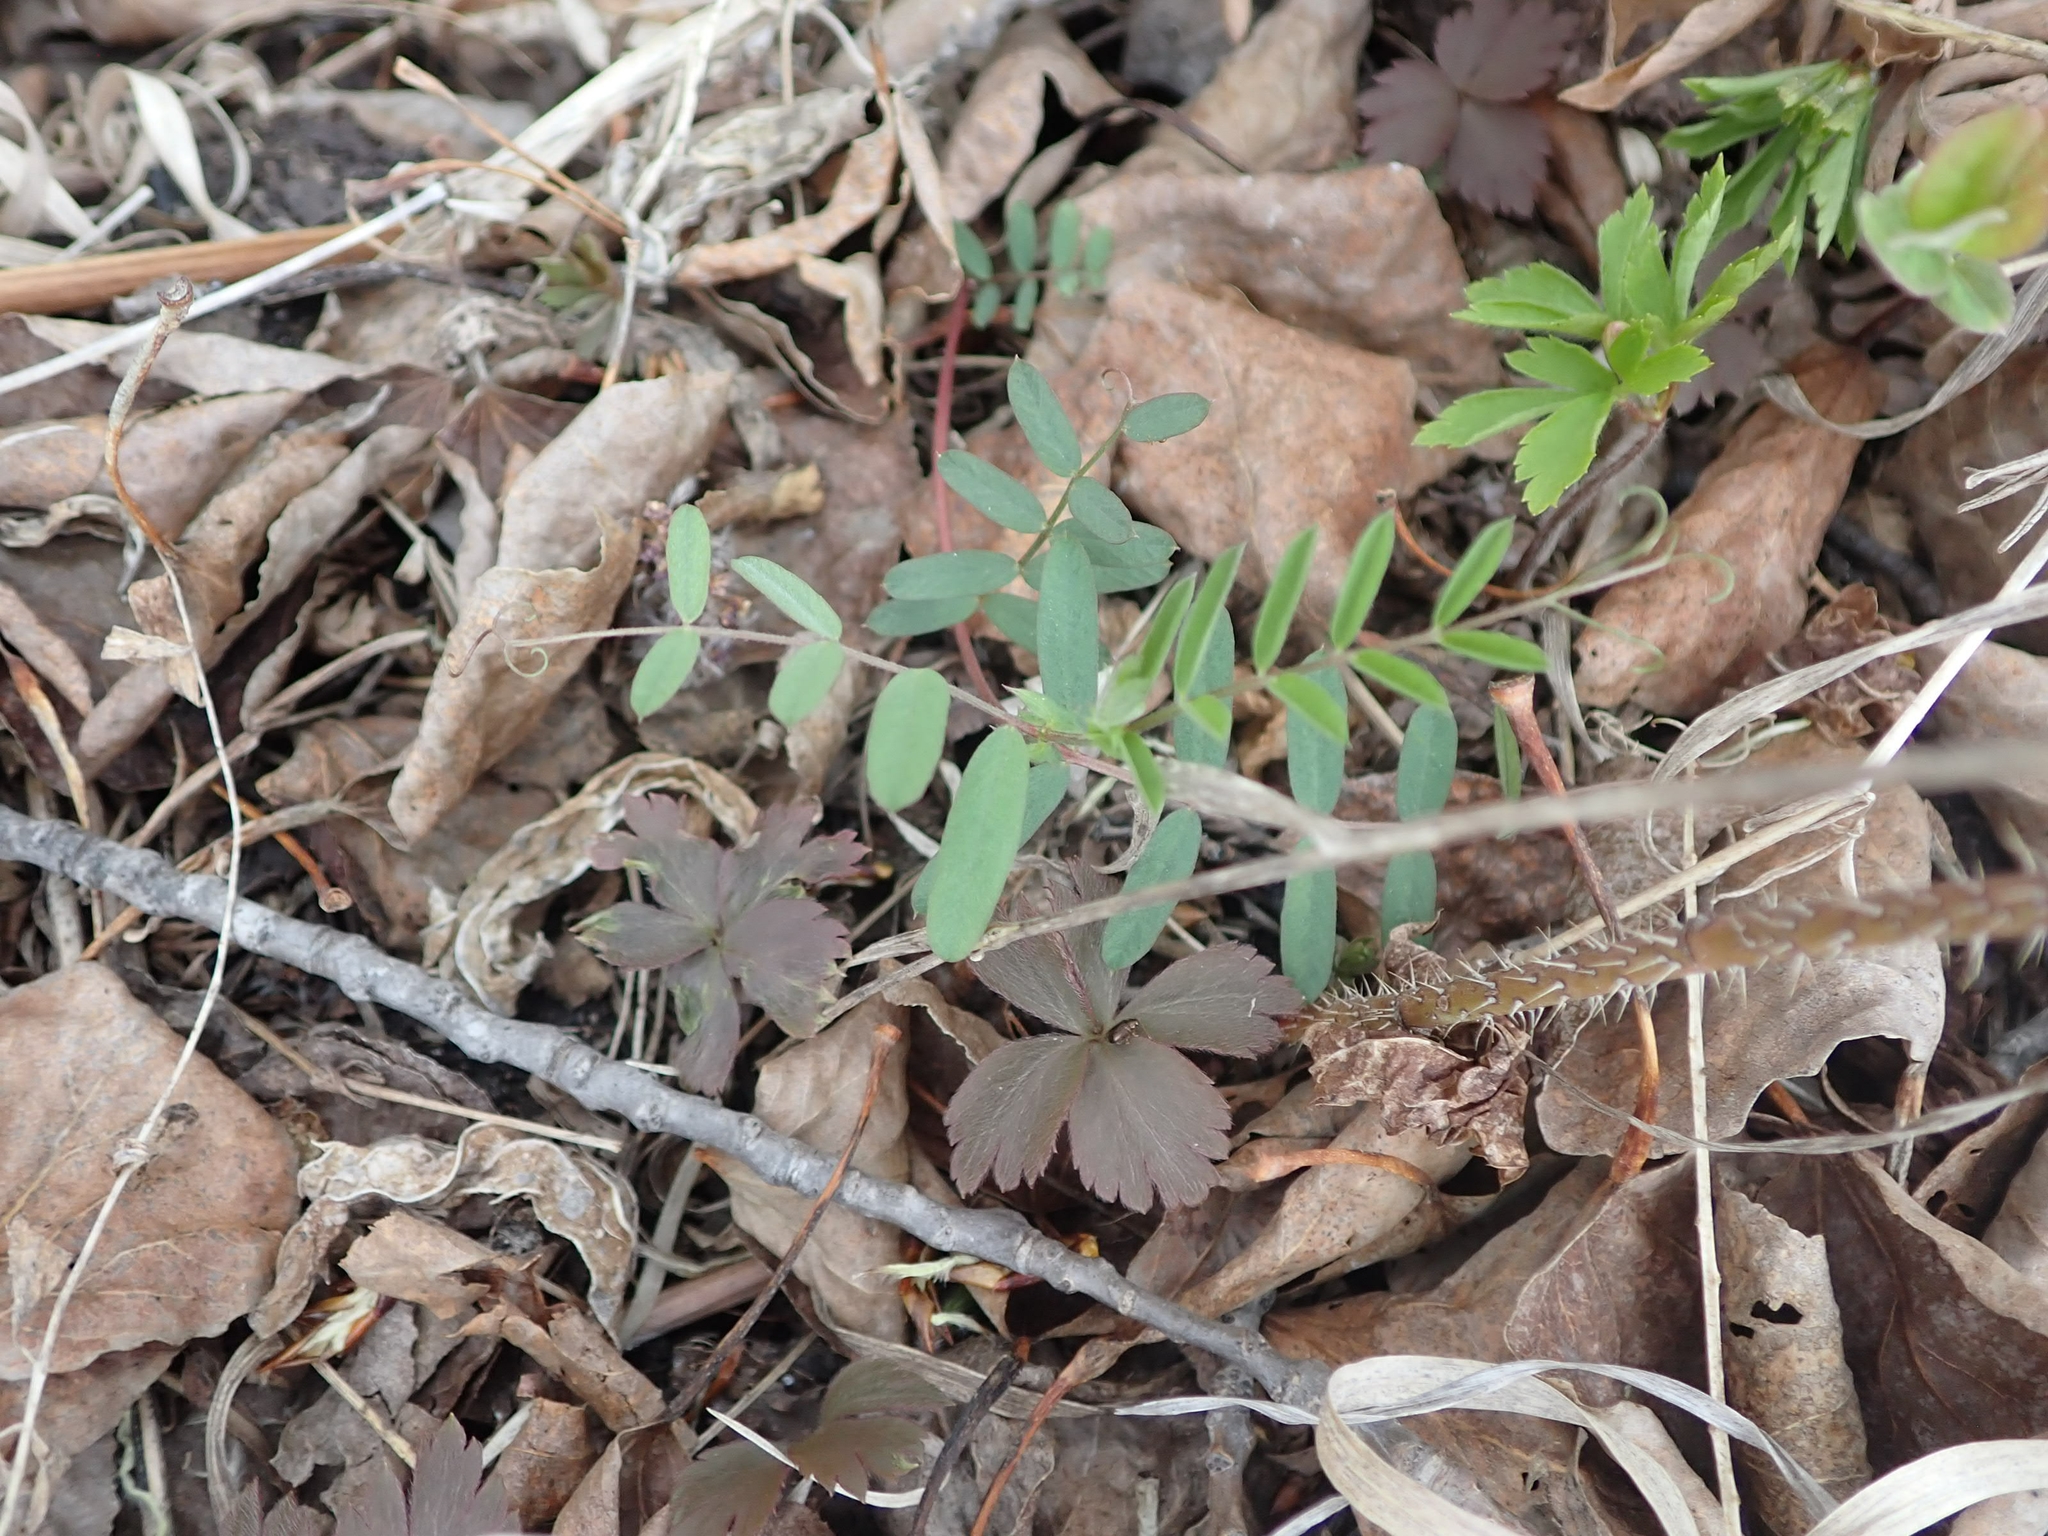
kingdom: Plantae
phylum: Tracheophyta
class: Magnoliopsida
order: Fabales
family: Fabaceae
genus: Vicia
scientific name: Vicia americana
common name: American vetch
